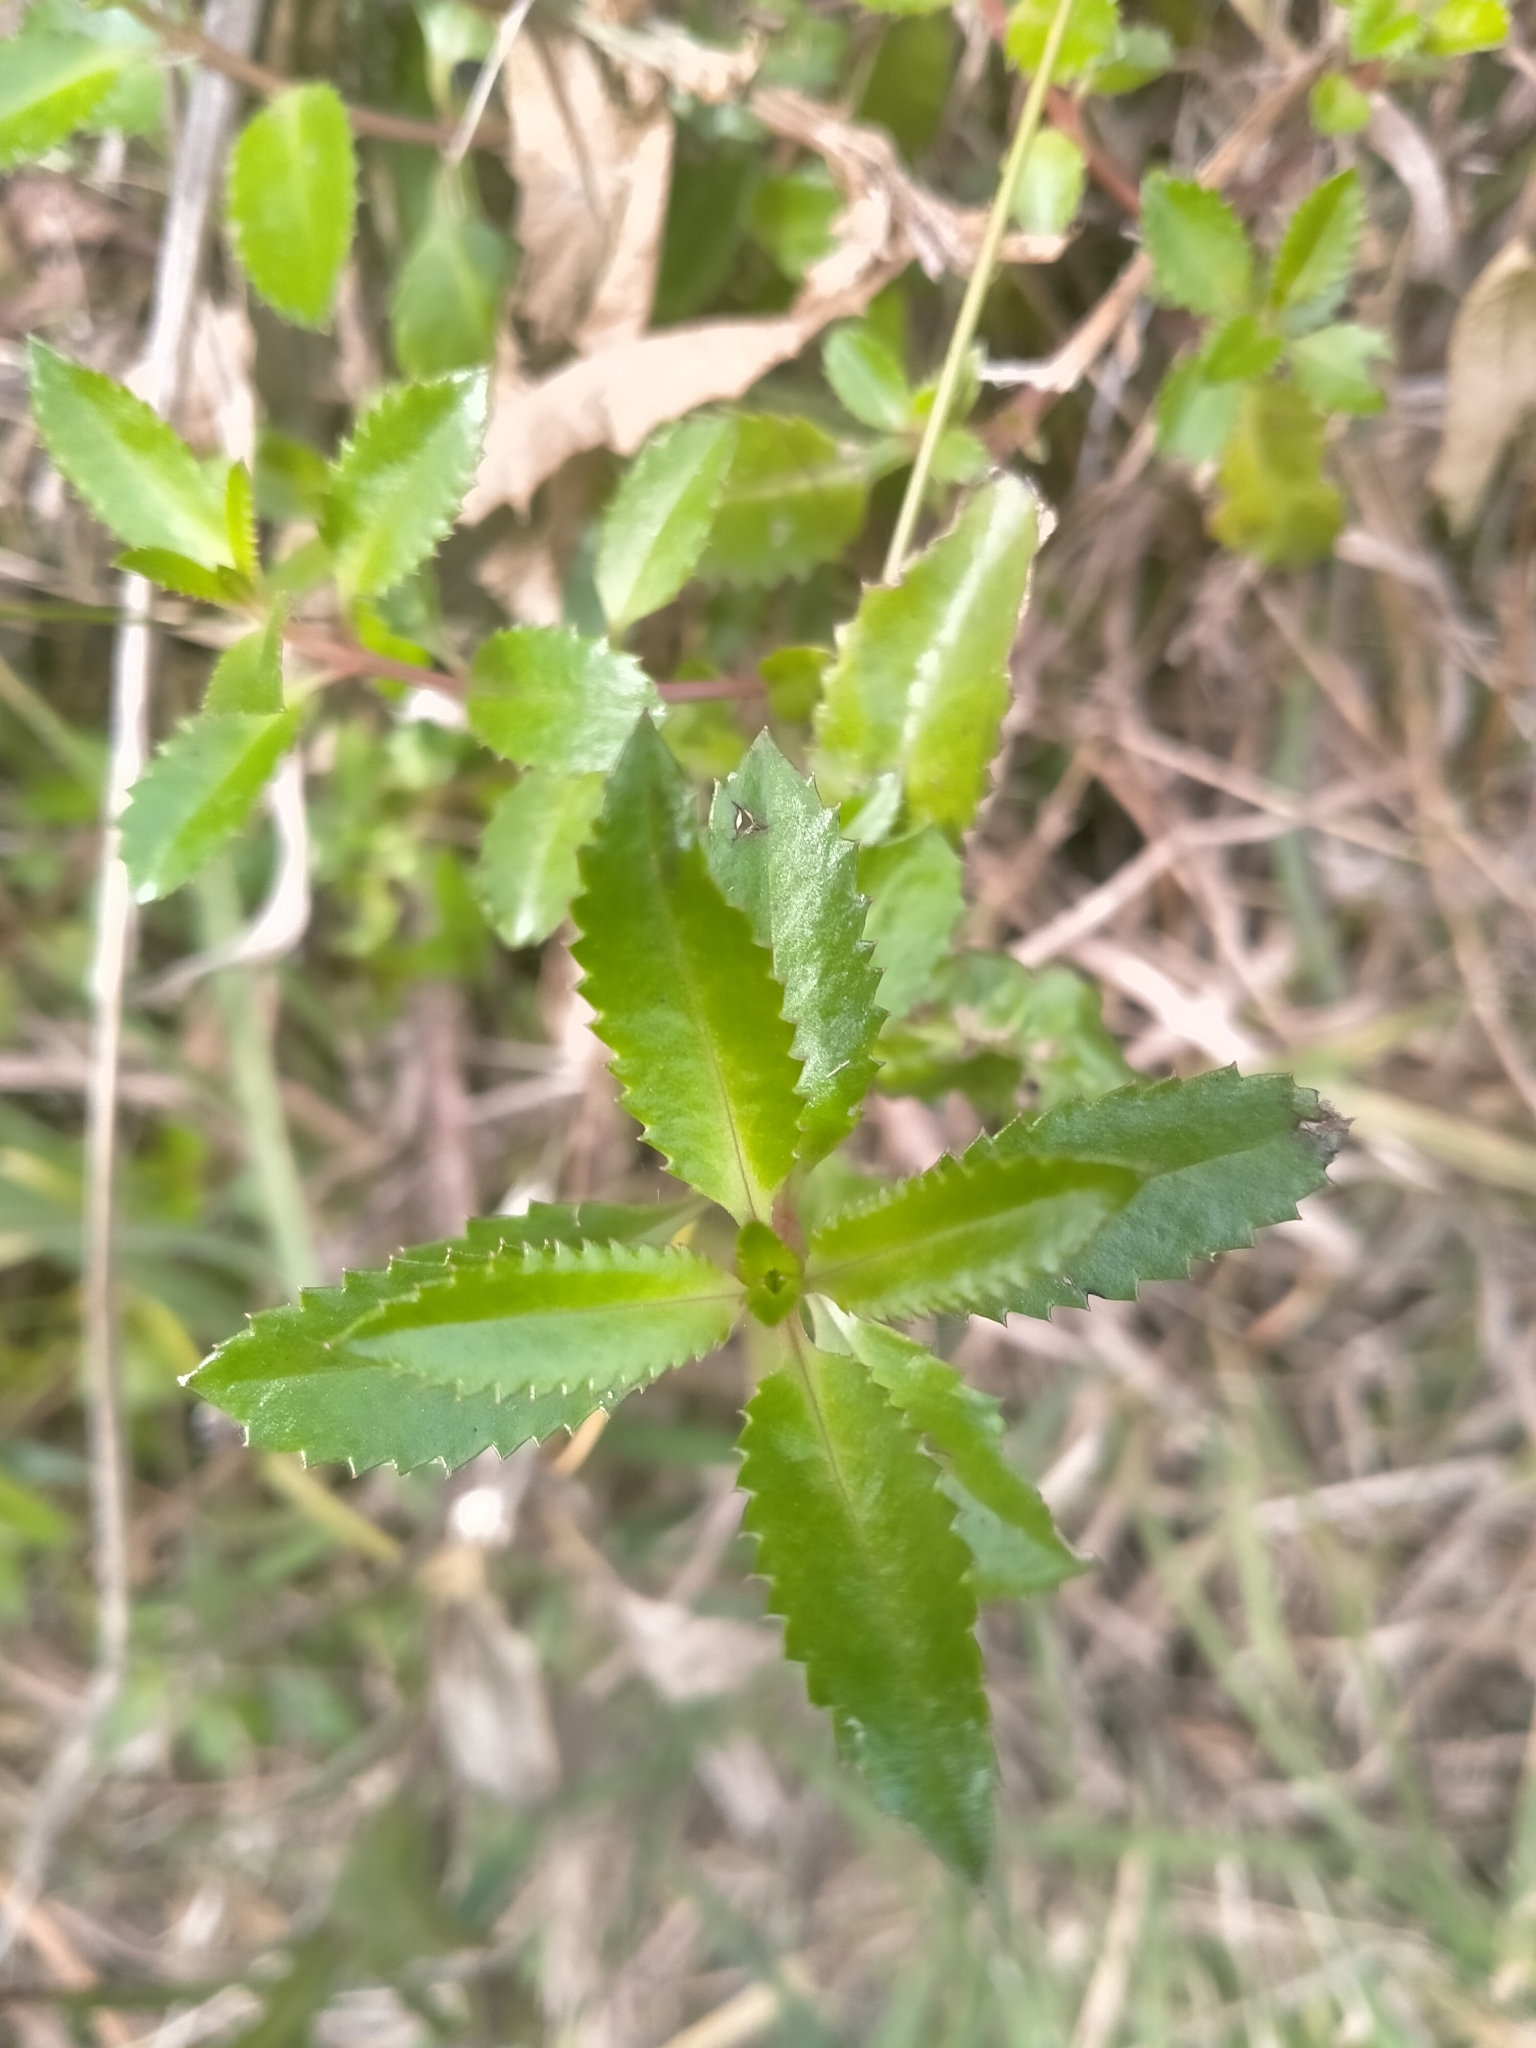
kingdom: Plantae
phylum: Tracheophyta
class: Magnoliopsida
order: Saxifragales
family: Haloragaceae
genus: Haloragis
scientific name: Haloragis erecta
